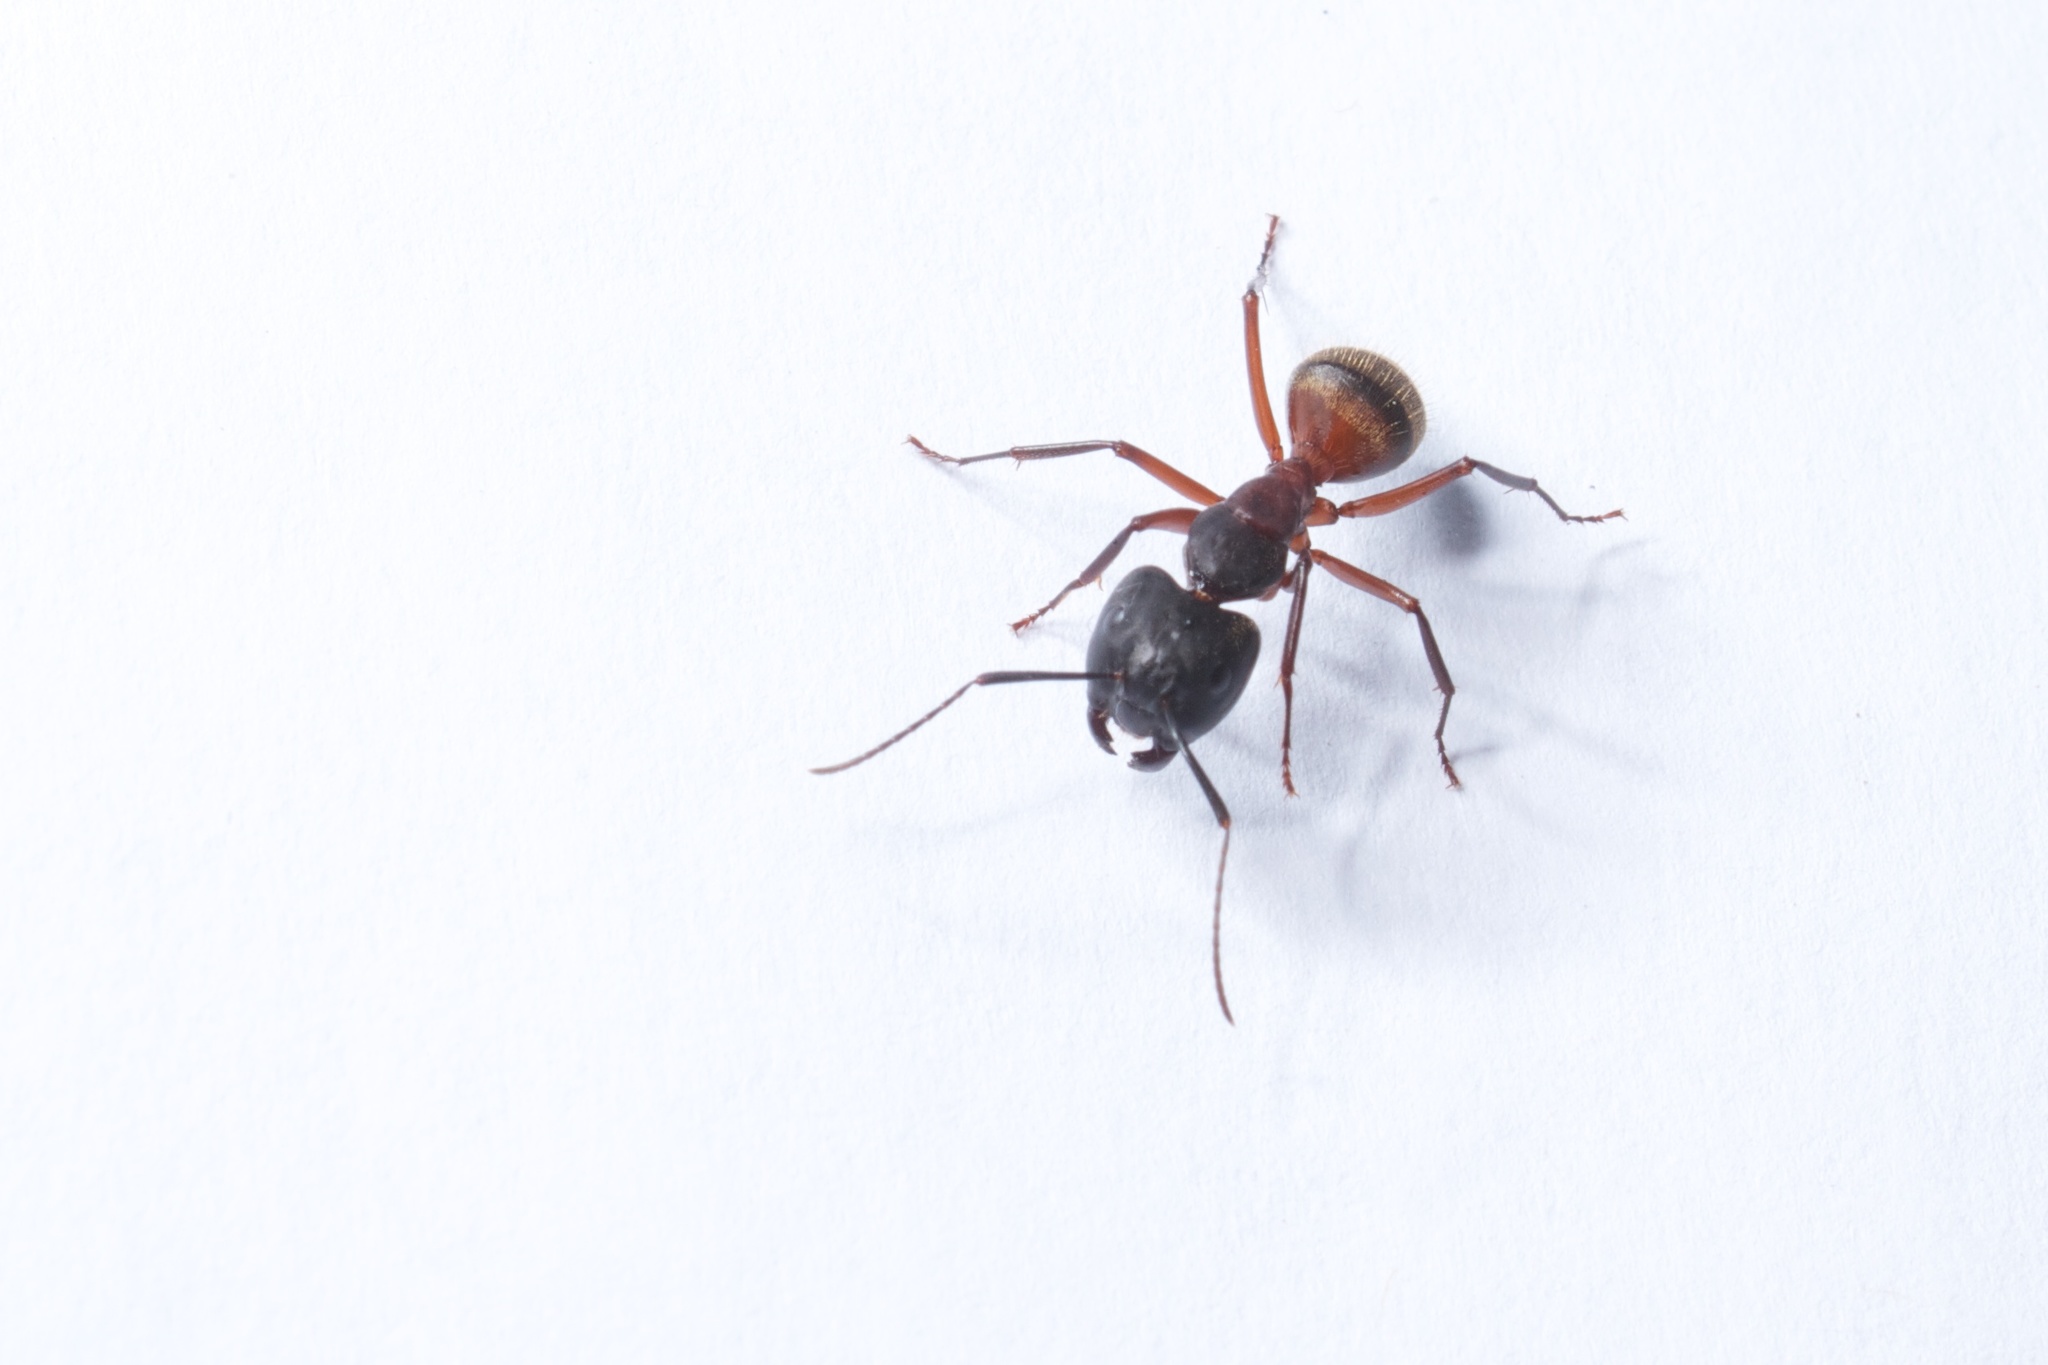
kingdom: Animalia
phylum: Arthropoda
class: Insecta
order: Hymenoptera
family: Formicidae
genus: Camponotus
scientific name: Camponotus chromaiodes
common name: Red carpenter ant
